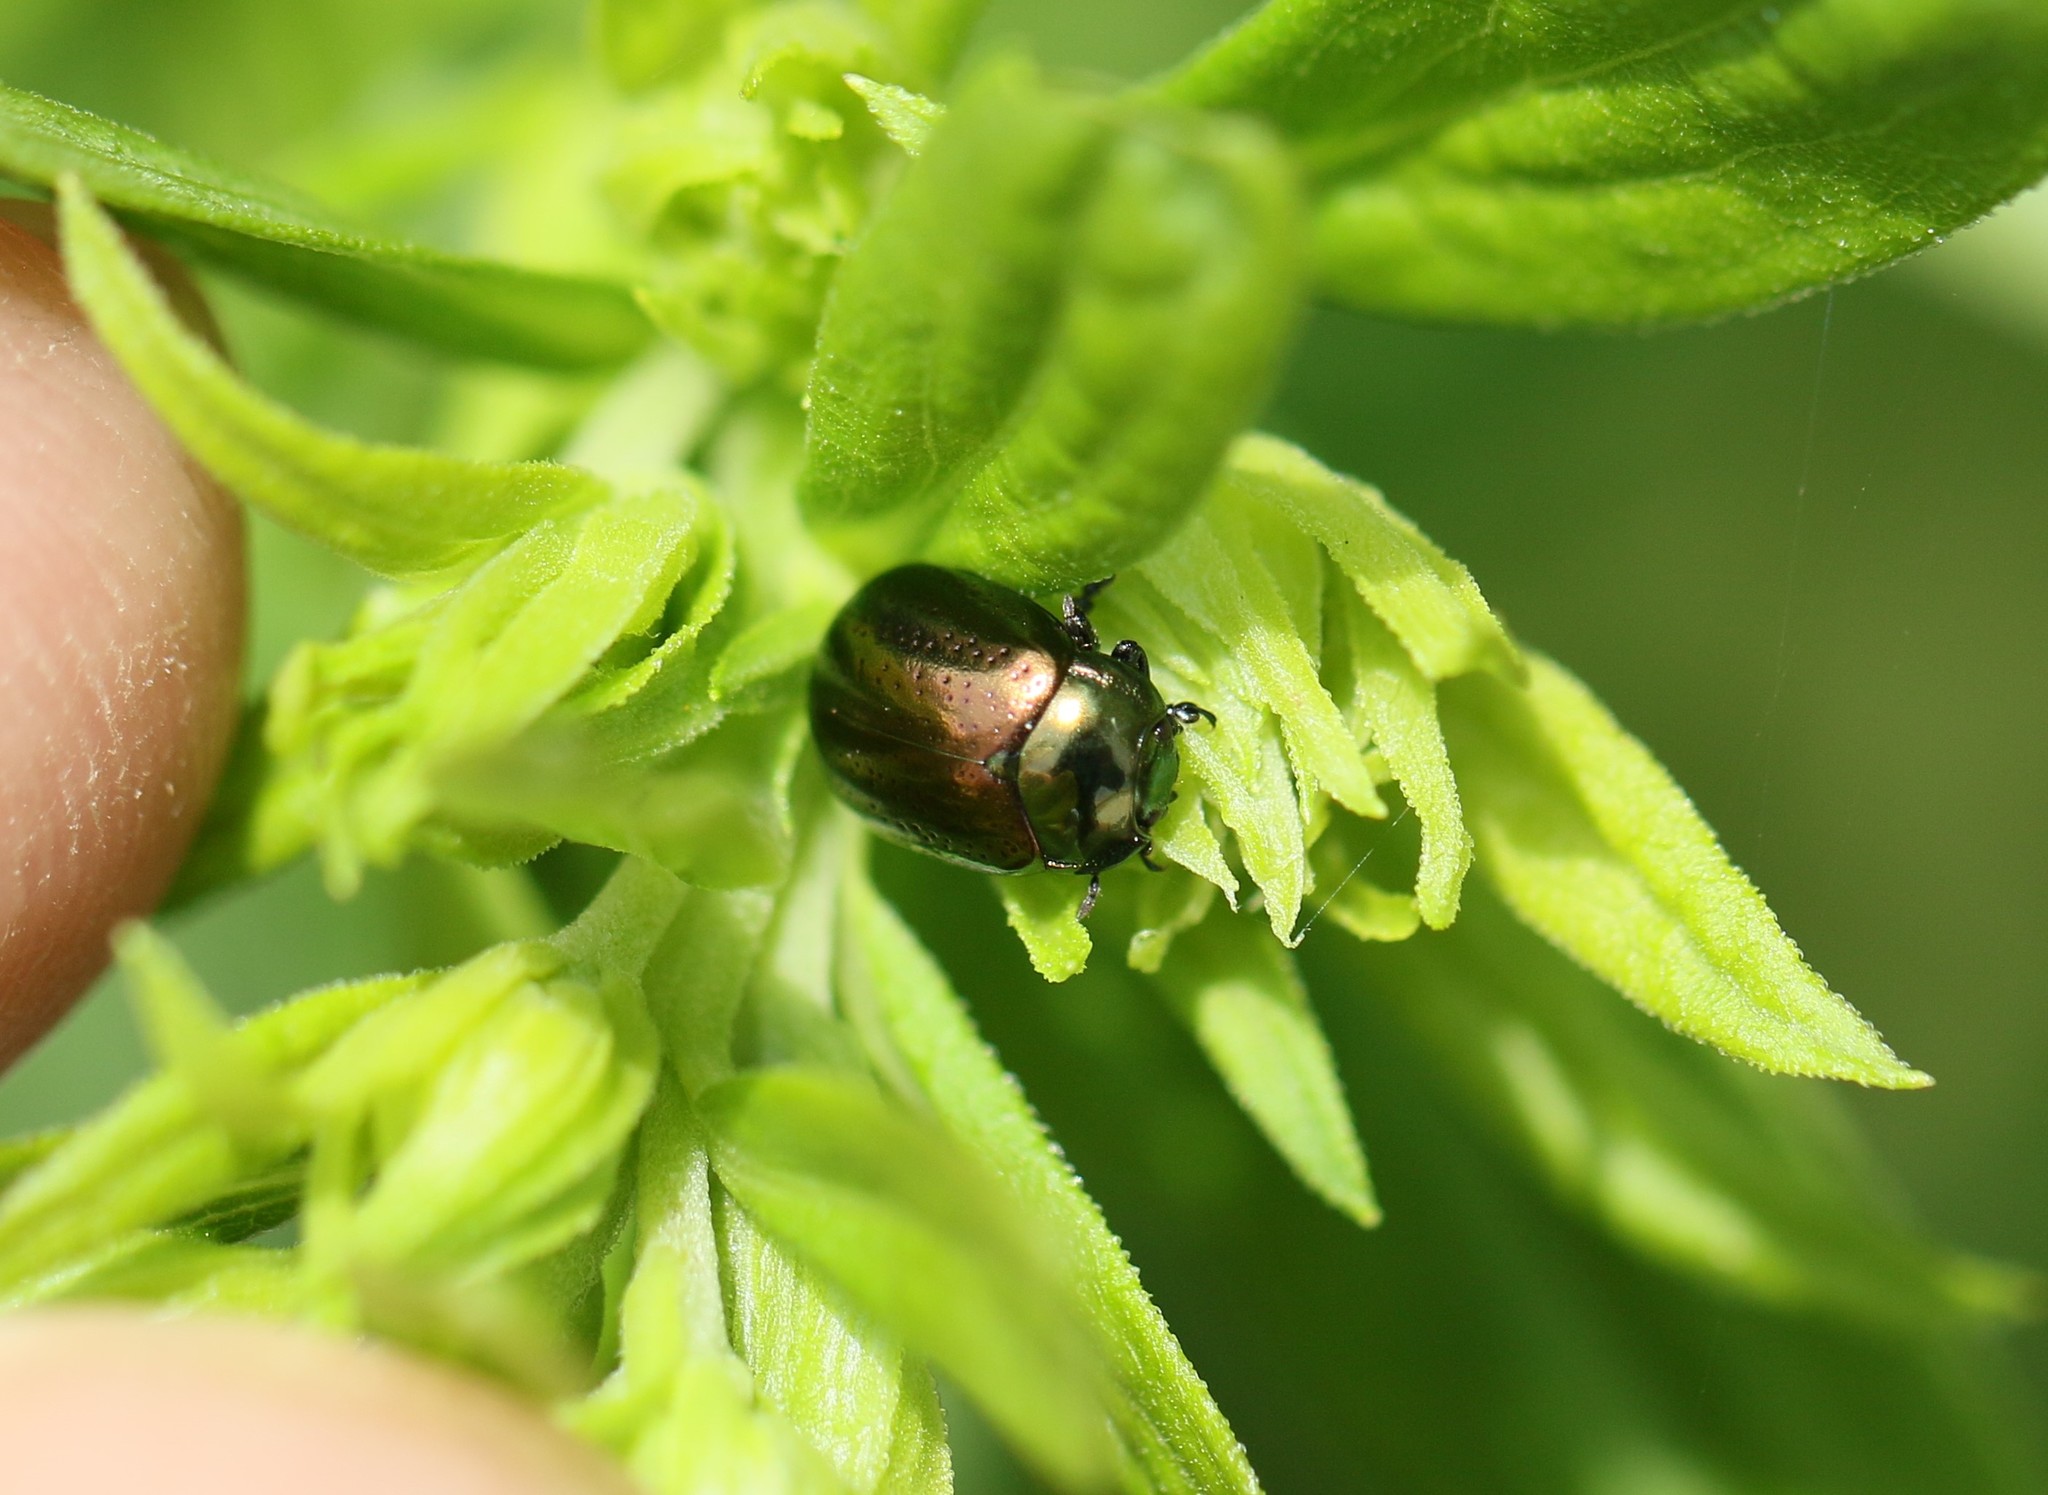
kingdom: Animalia
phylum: Arthropoda
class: Insecta
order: Coleoptera
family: Chrysomelidae
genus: Chrysolina
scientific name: Chrysolina hyperici
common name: St. johnswort beetle
